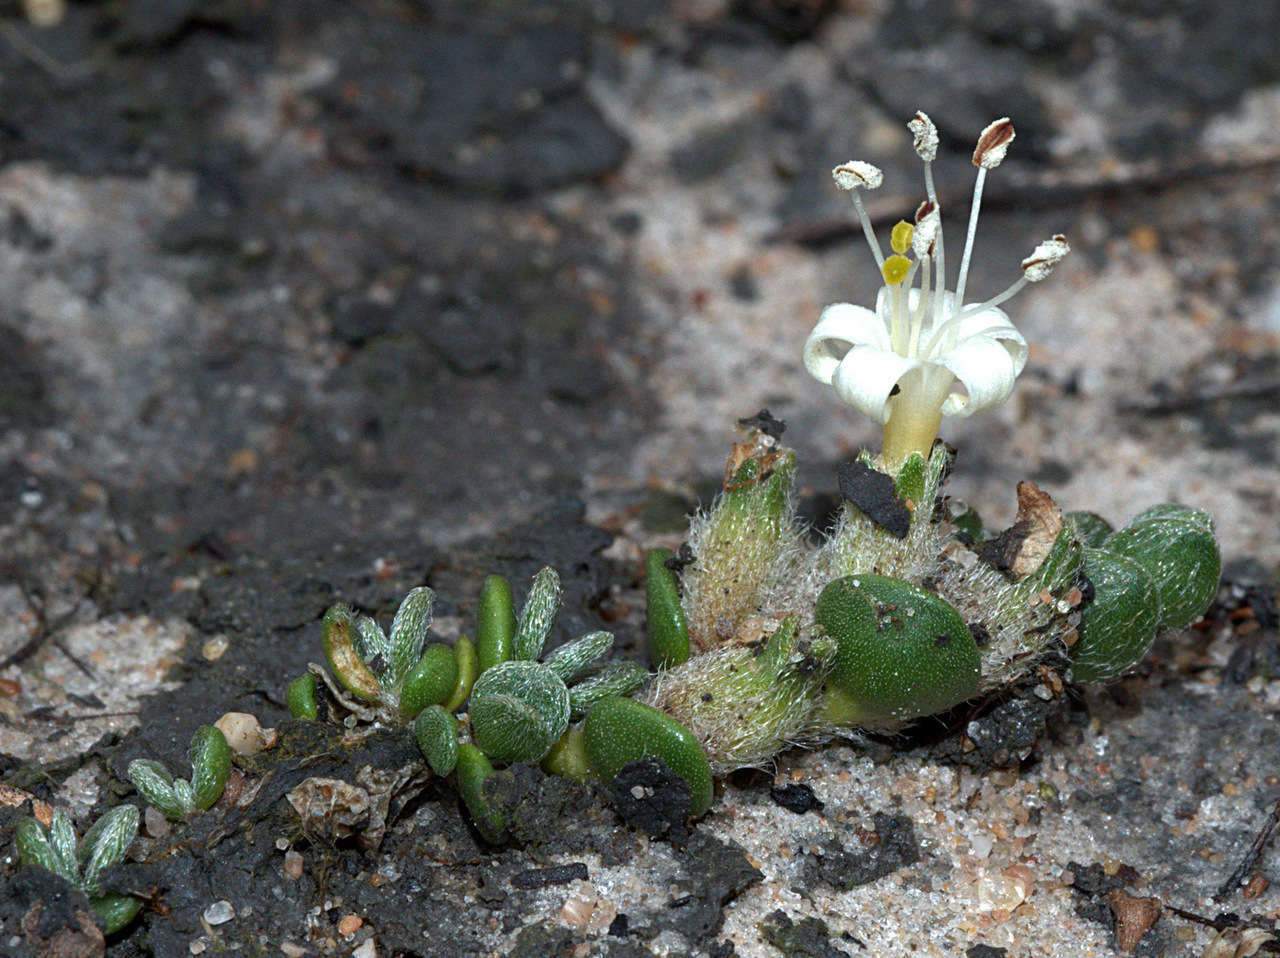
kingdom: Plantae
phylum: Tracheophyta
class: Magnoliopsida
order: Solanales
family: Convolvulaceae
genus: Wilsonia
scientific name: Wilsonia rotundifolia
